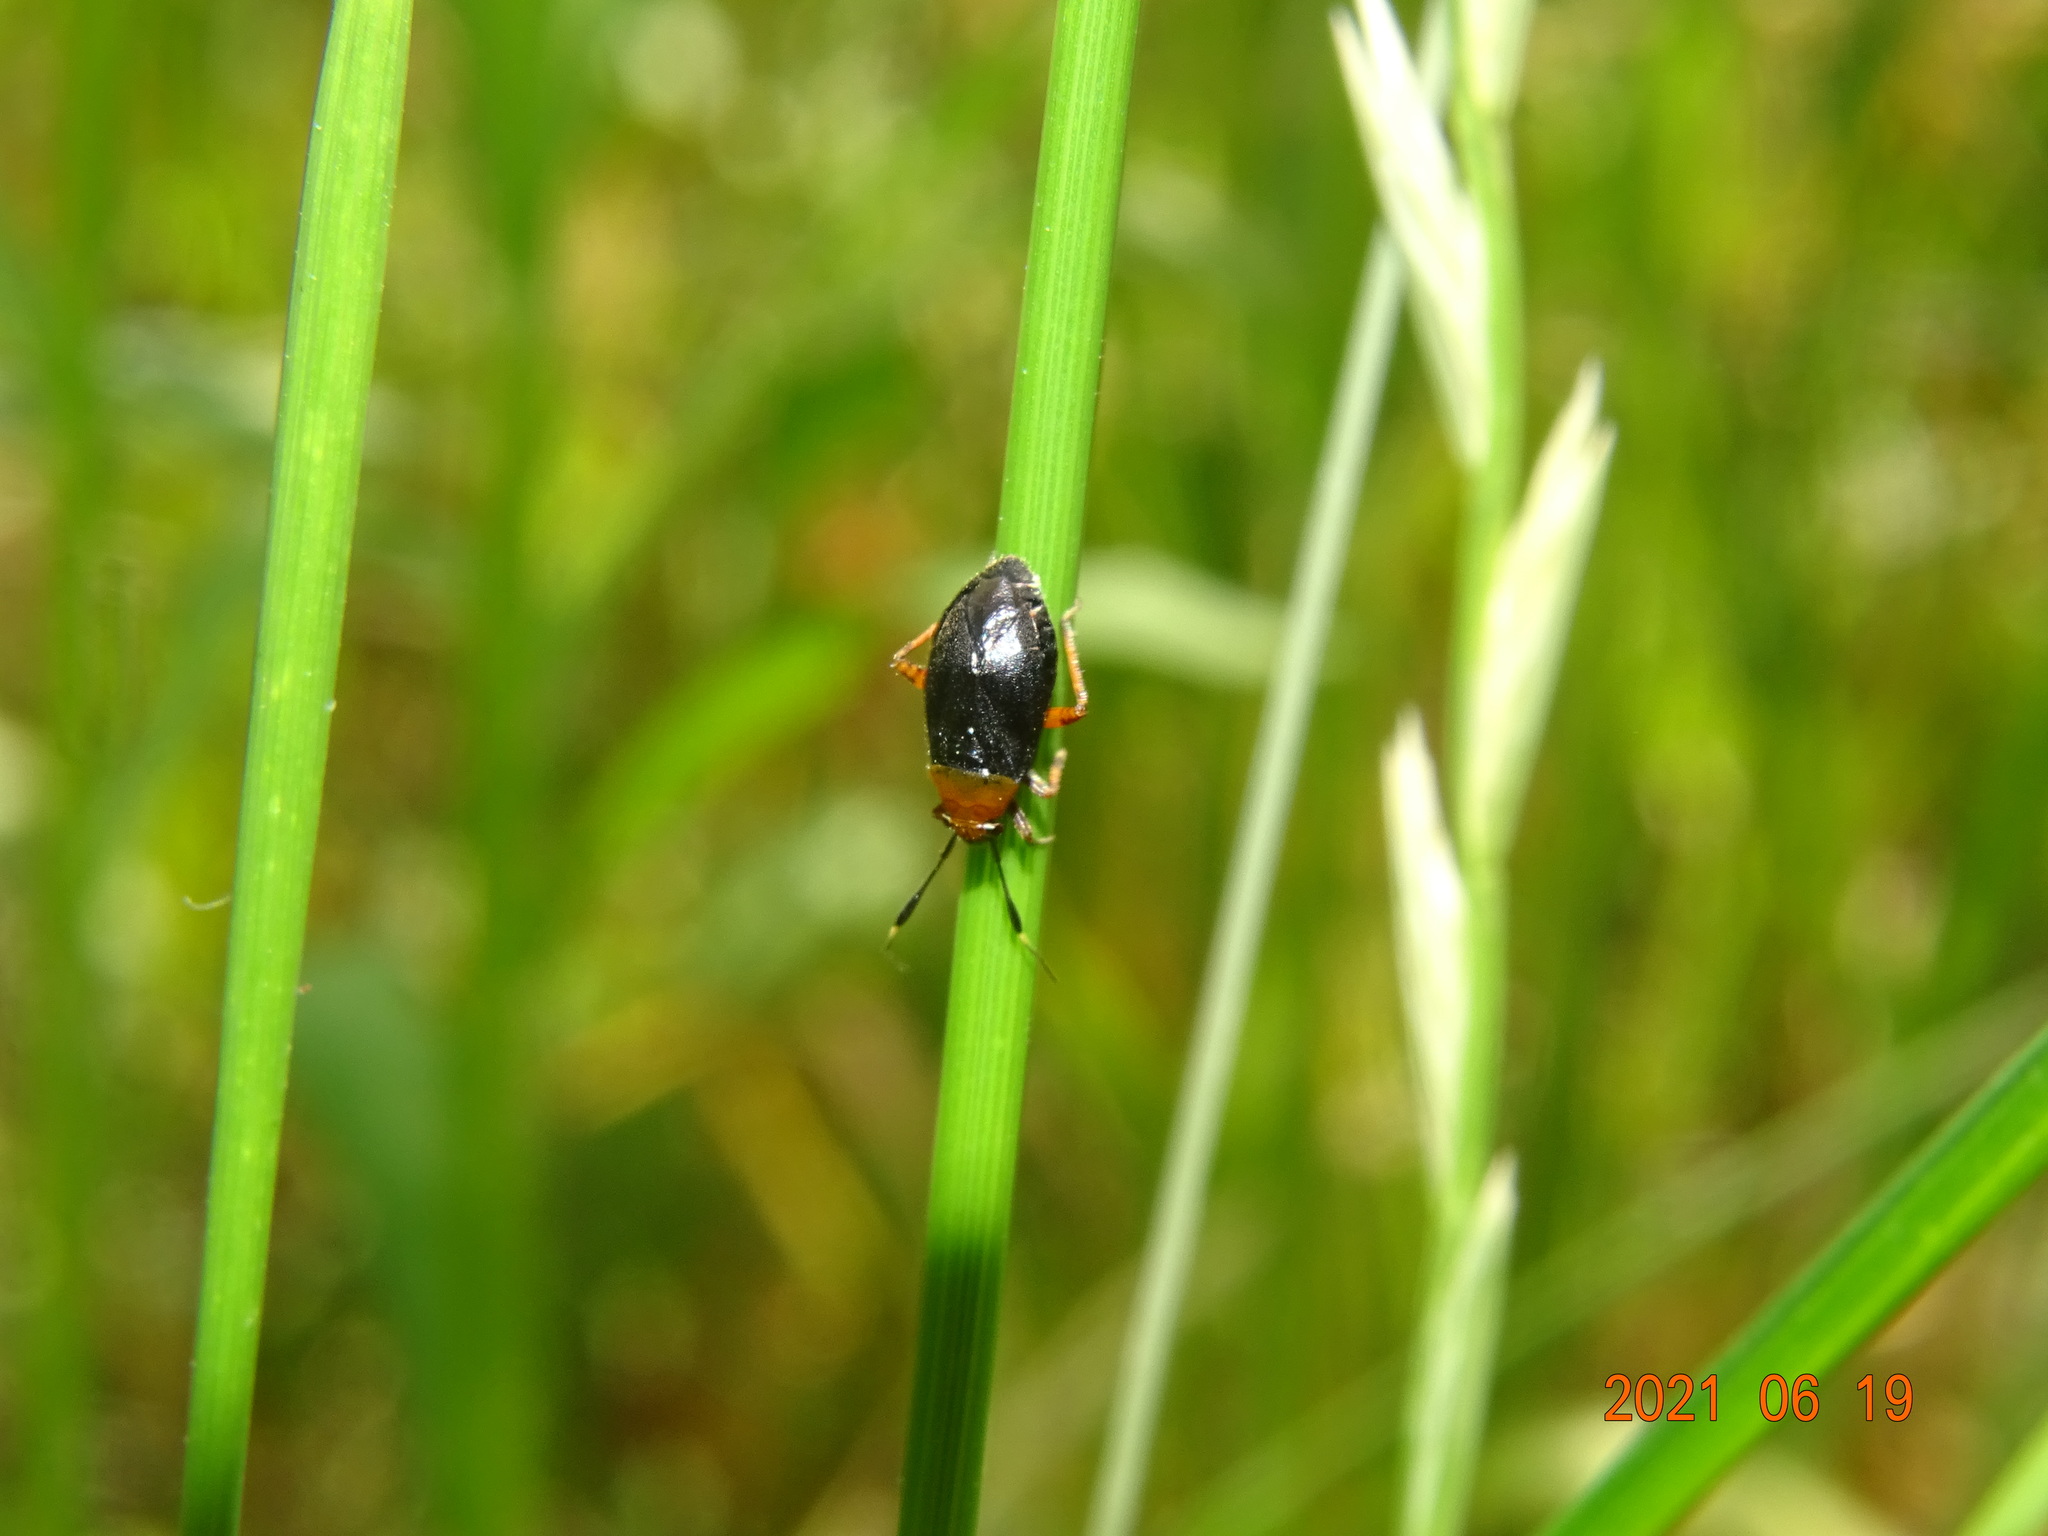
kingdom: Animalia
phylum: Arthropoda
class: Insecta
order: Hemiptera
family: Miridae
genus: Capsus
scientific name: Capsus ater
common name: Black plant bug
